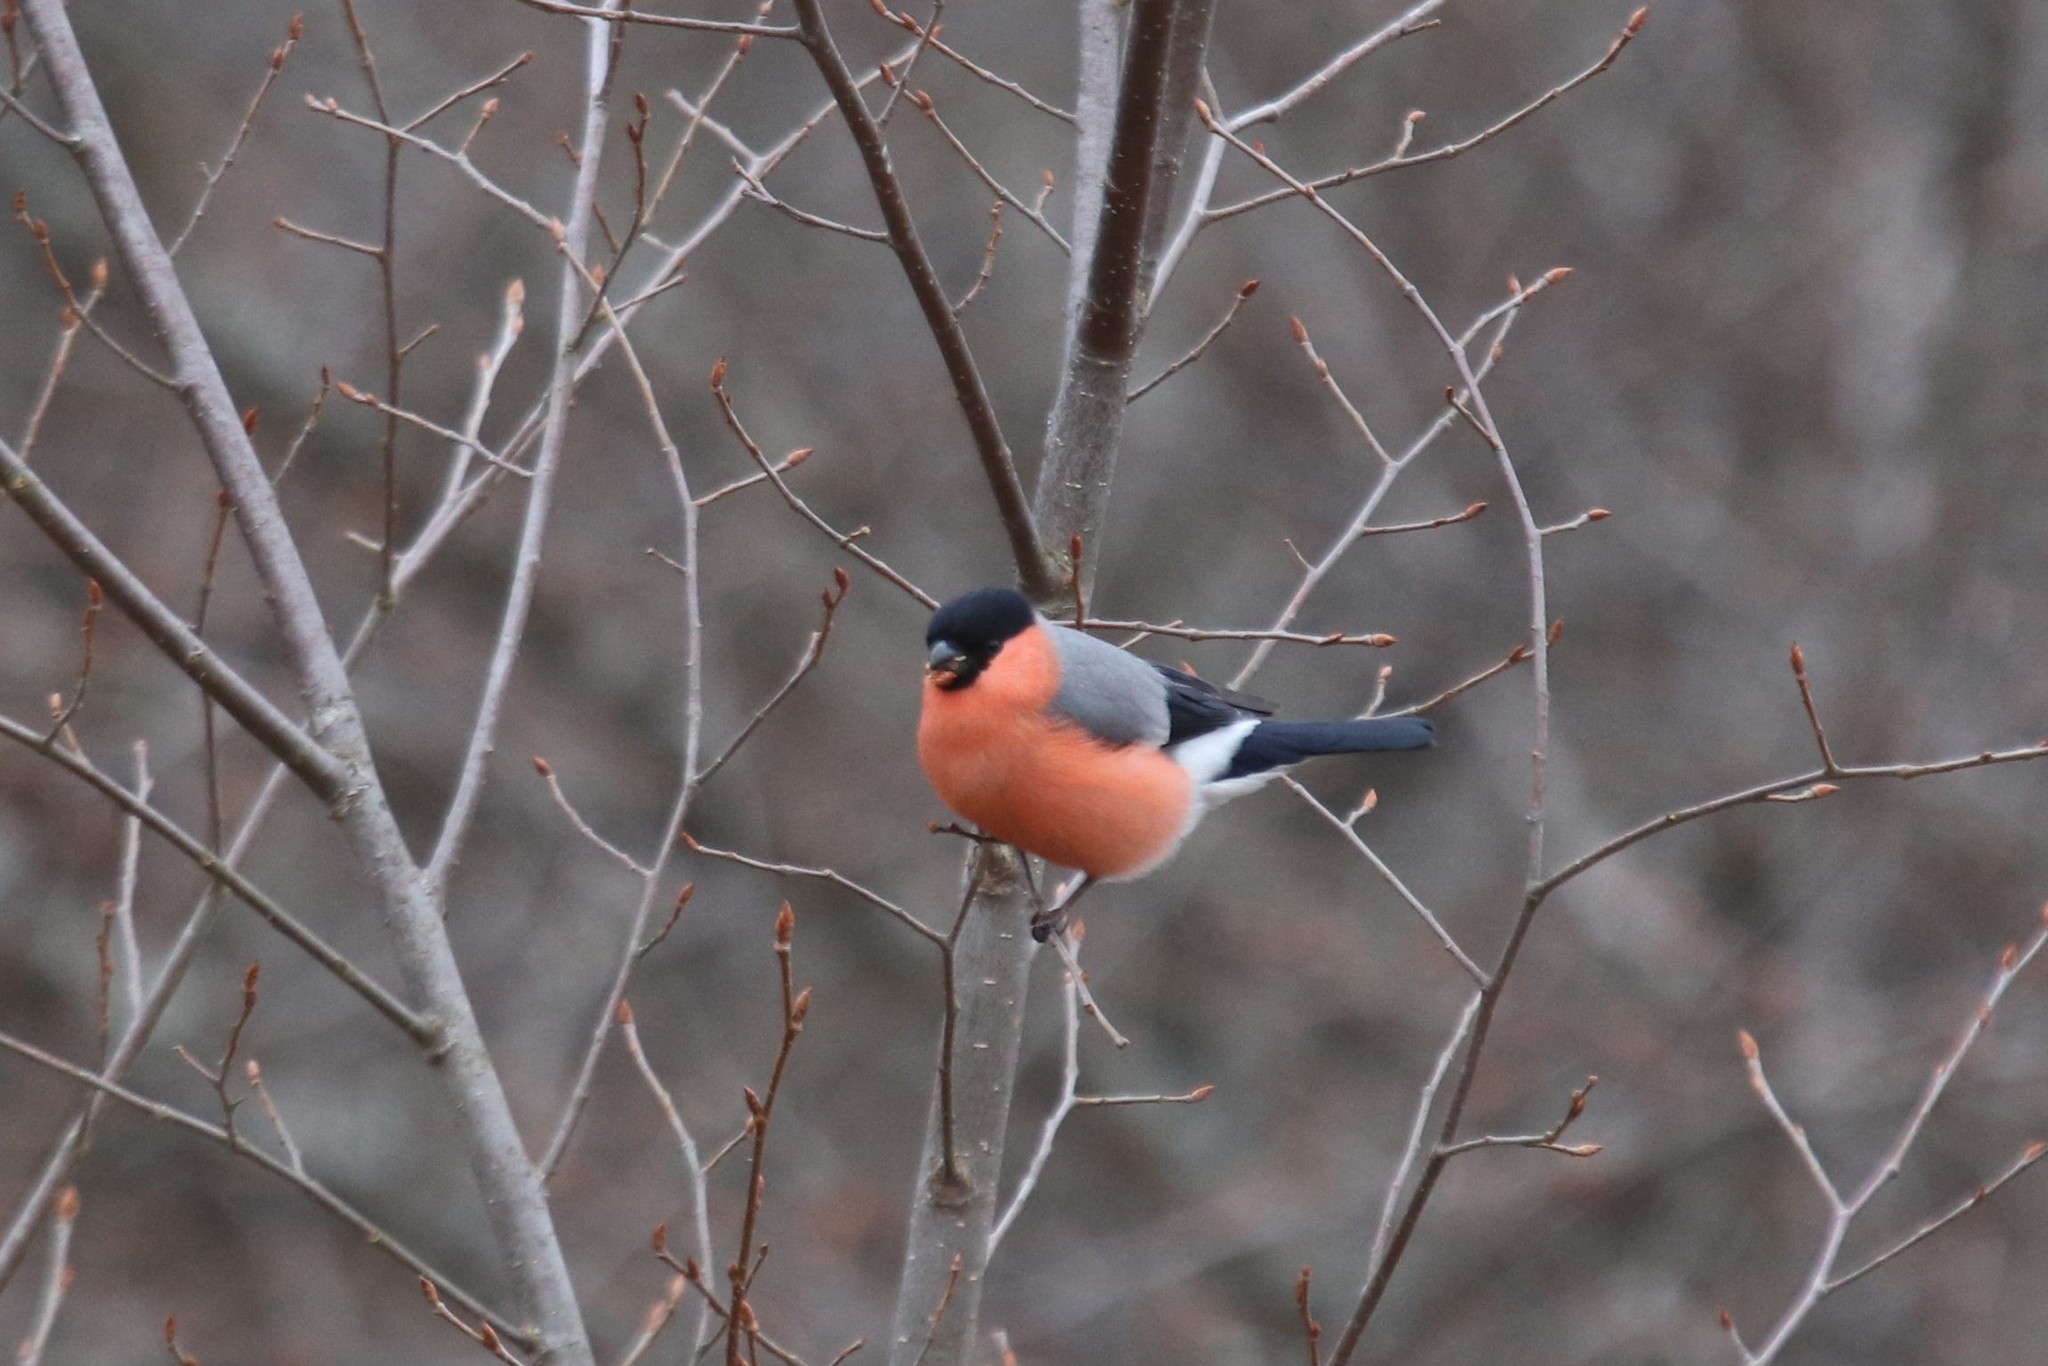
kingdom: Animalia
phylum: Chordata
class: Aves
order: Passeriformes
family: Fringillidae
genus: Pyrrhula
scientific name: Pyrrhula pyrrhula
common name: Eurasian bullfinch
